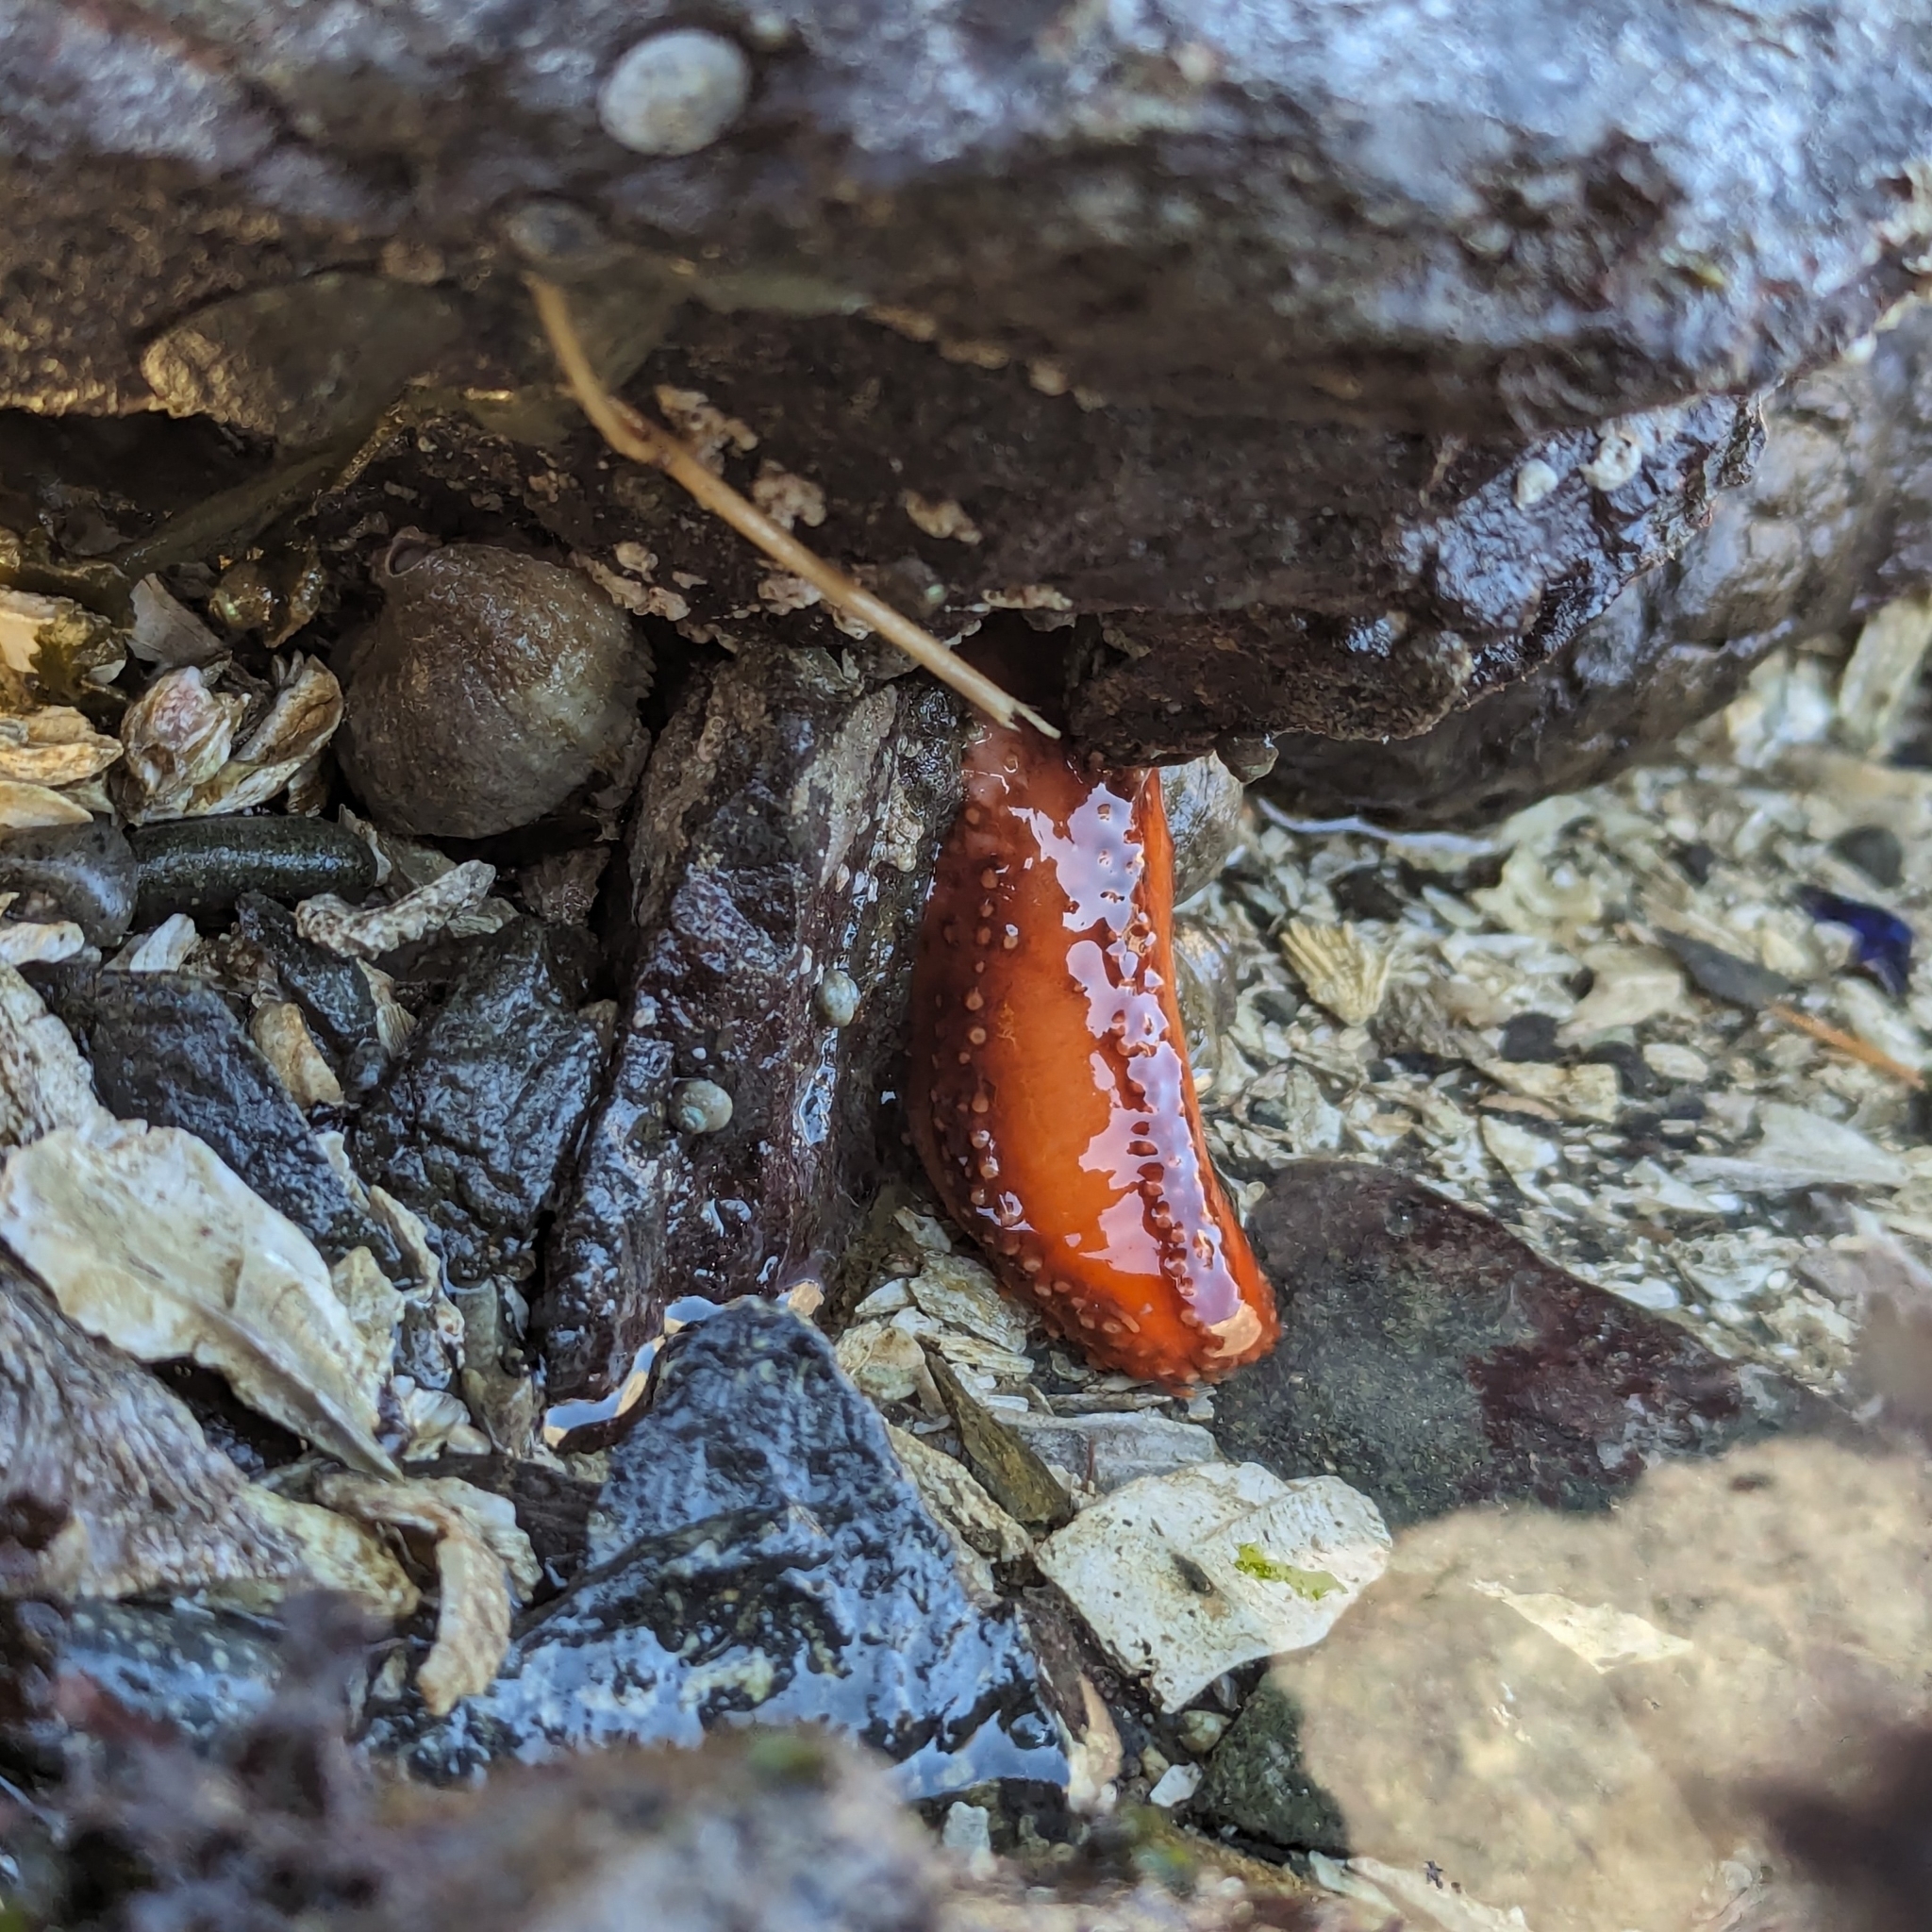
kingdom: Animalia
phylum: Echinodermata
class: Holothuroidea
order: Dendrochirotida
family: Cucumariidae
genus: Cucumaria
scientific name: Cucumaria miniata
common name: Orange sea cucumber
